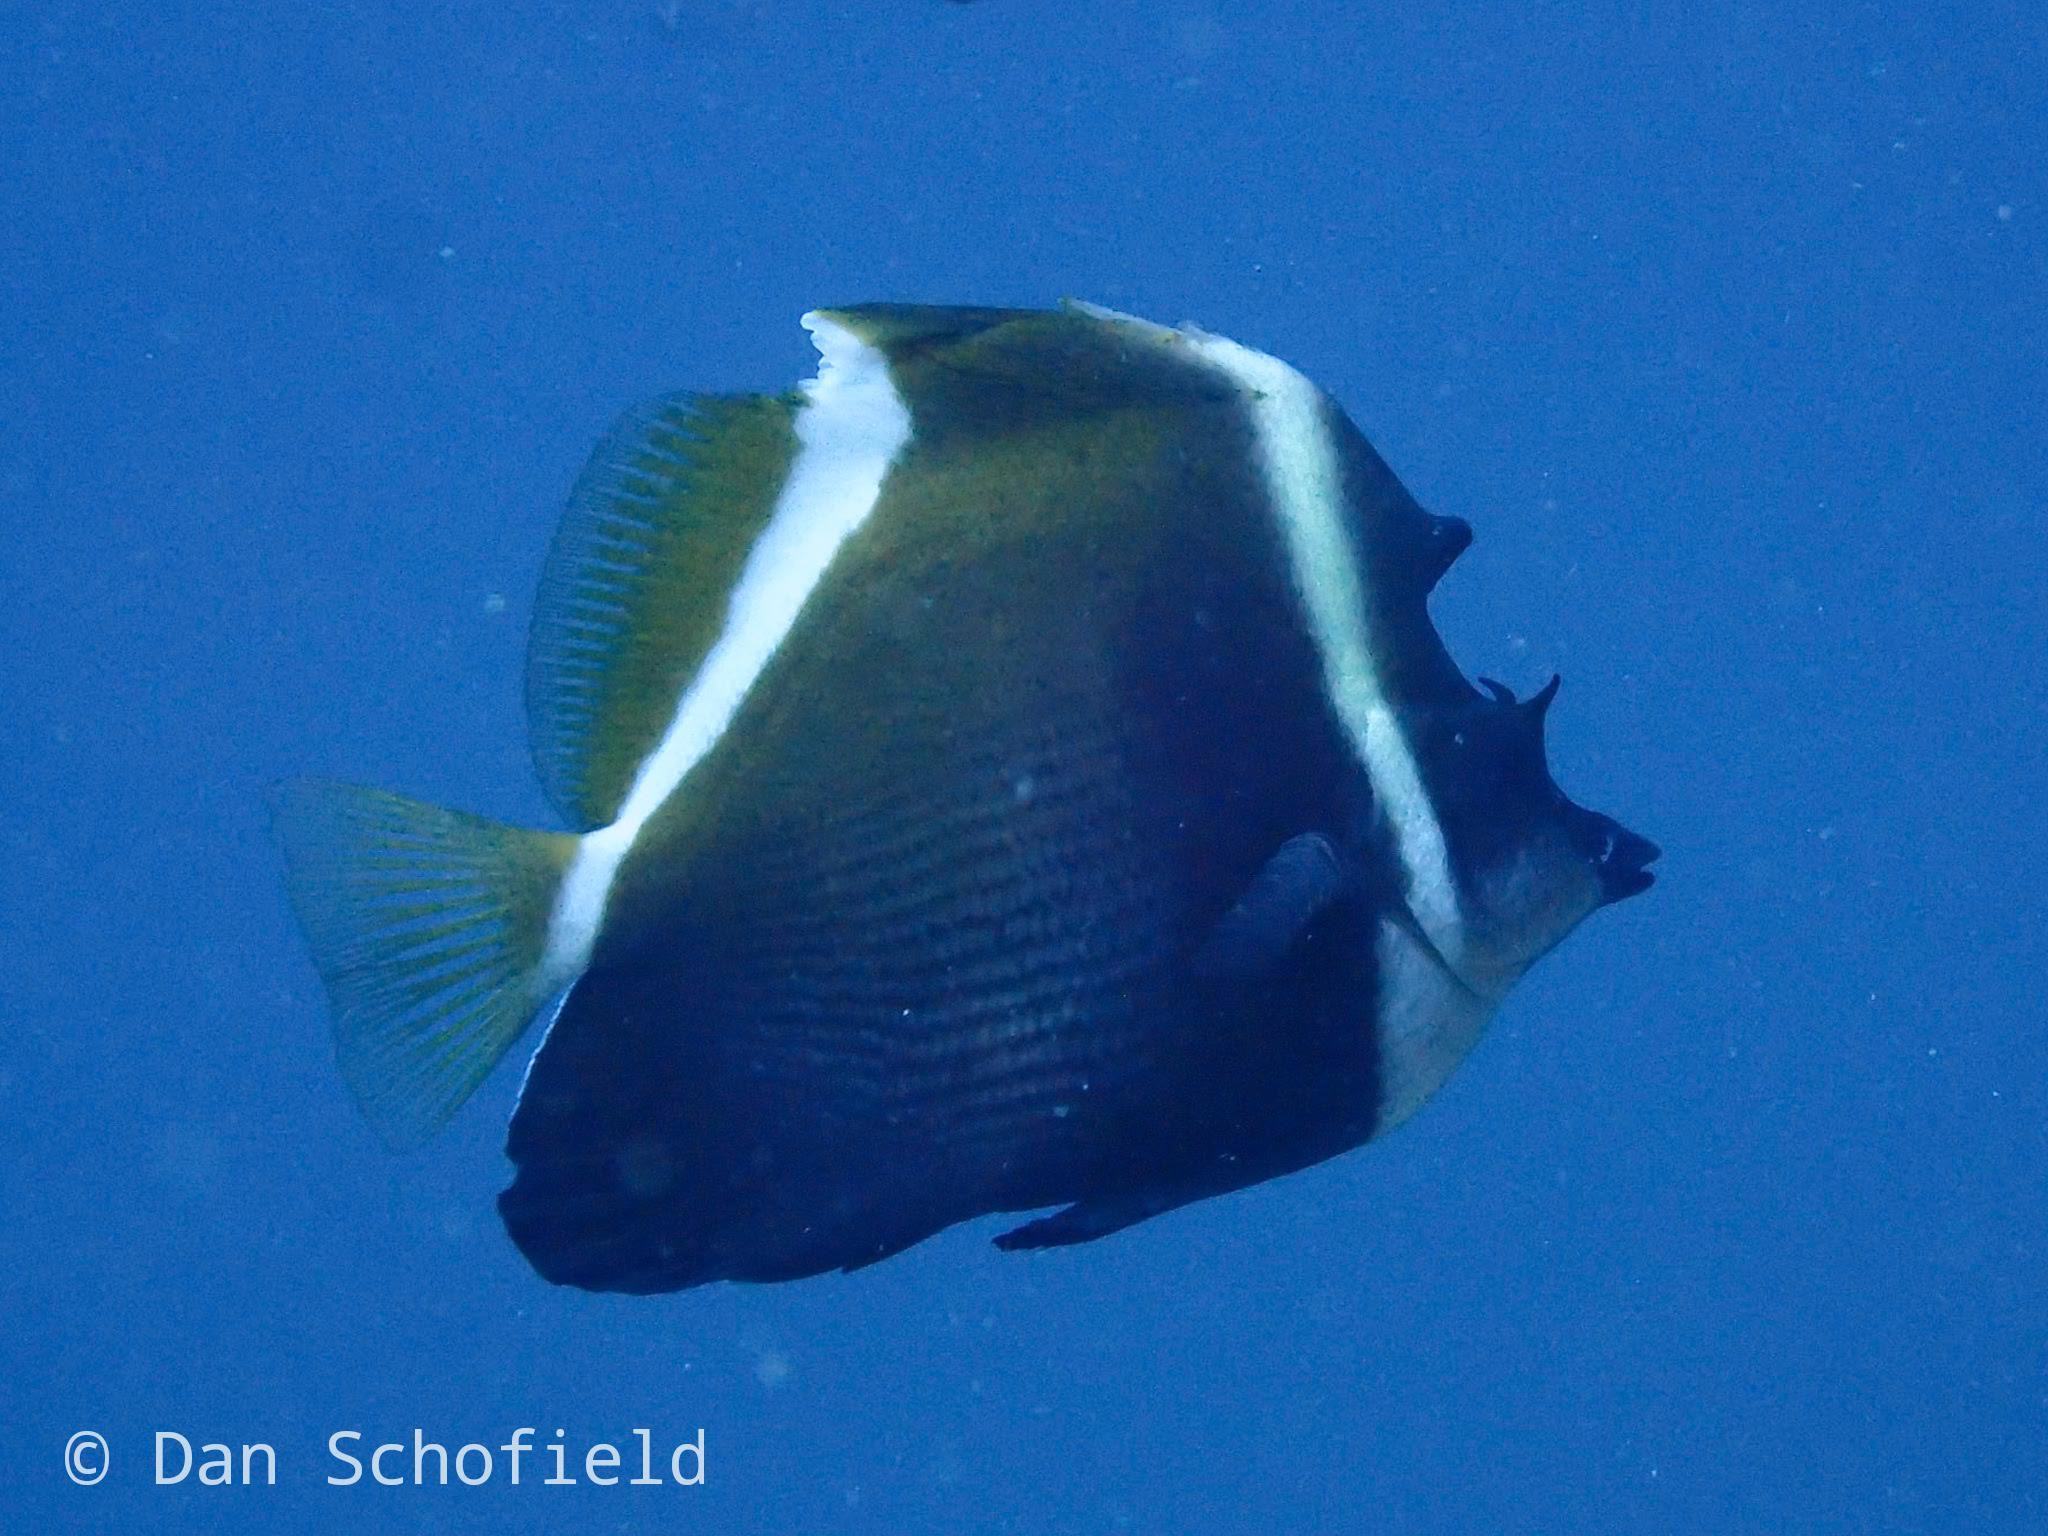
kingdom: Animalia
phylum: Chordata
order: Perciformes
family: Chaetodontidae
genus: Heniochus
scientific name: Heniochus varius
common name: Horned bannerfish
